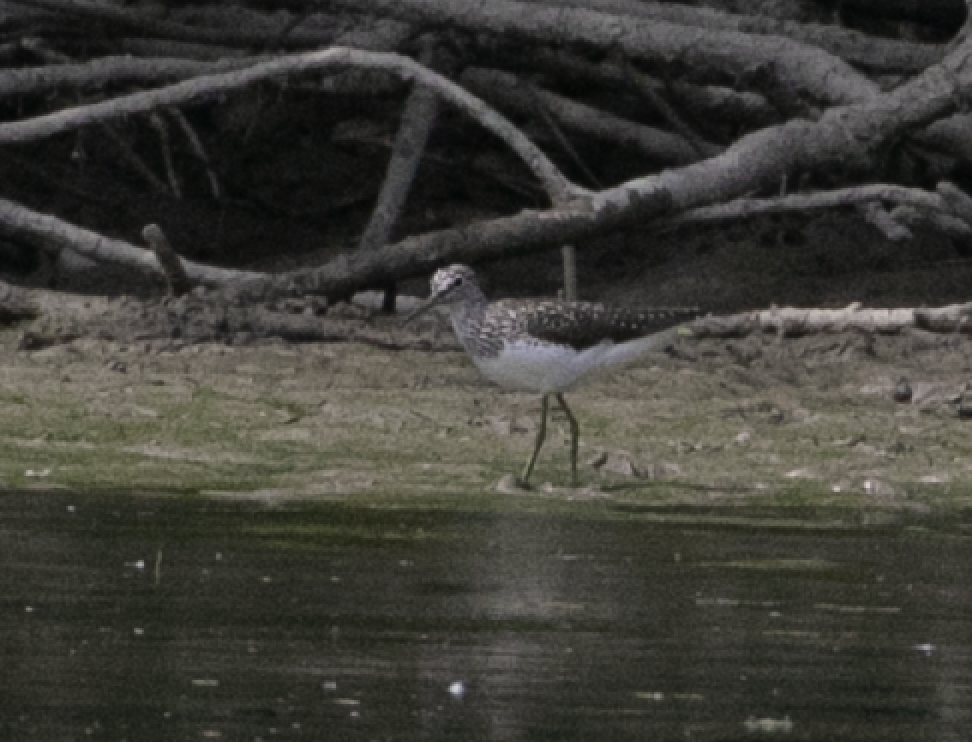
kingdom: Animalia
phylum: Chordata
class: Aves
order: Charadriiformes
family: Scolopacidae
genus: Tringa
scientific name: Tringa ochropus
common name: Green sandpiper
